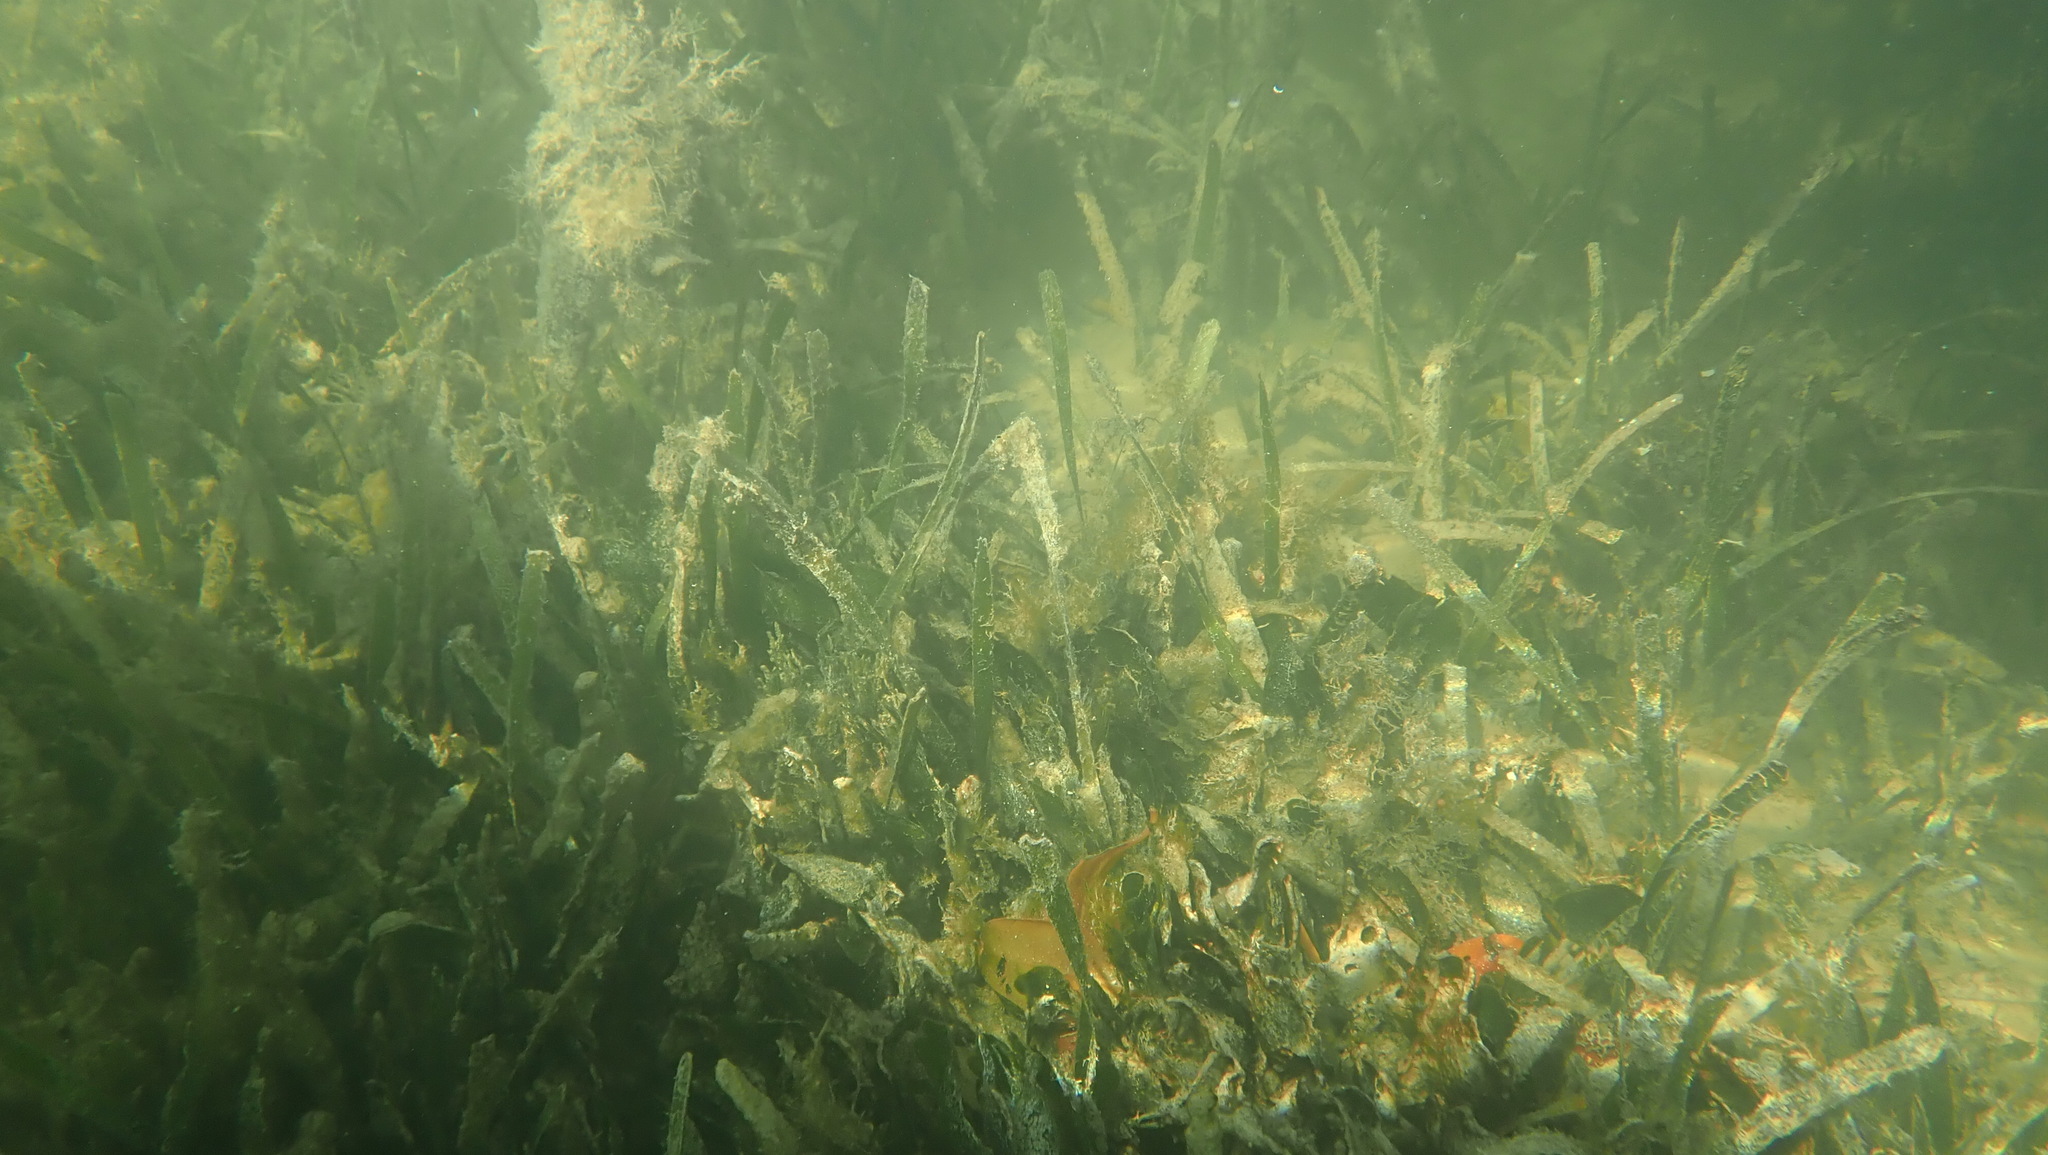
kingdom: Plantae
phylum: Tracheophyta
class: Liliopsida
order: Alismatales
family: Hydrocharitaceae
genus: Thalassia
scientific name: Thalassia testudinum
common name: Species code: tt
